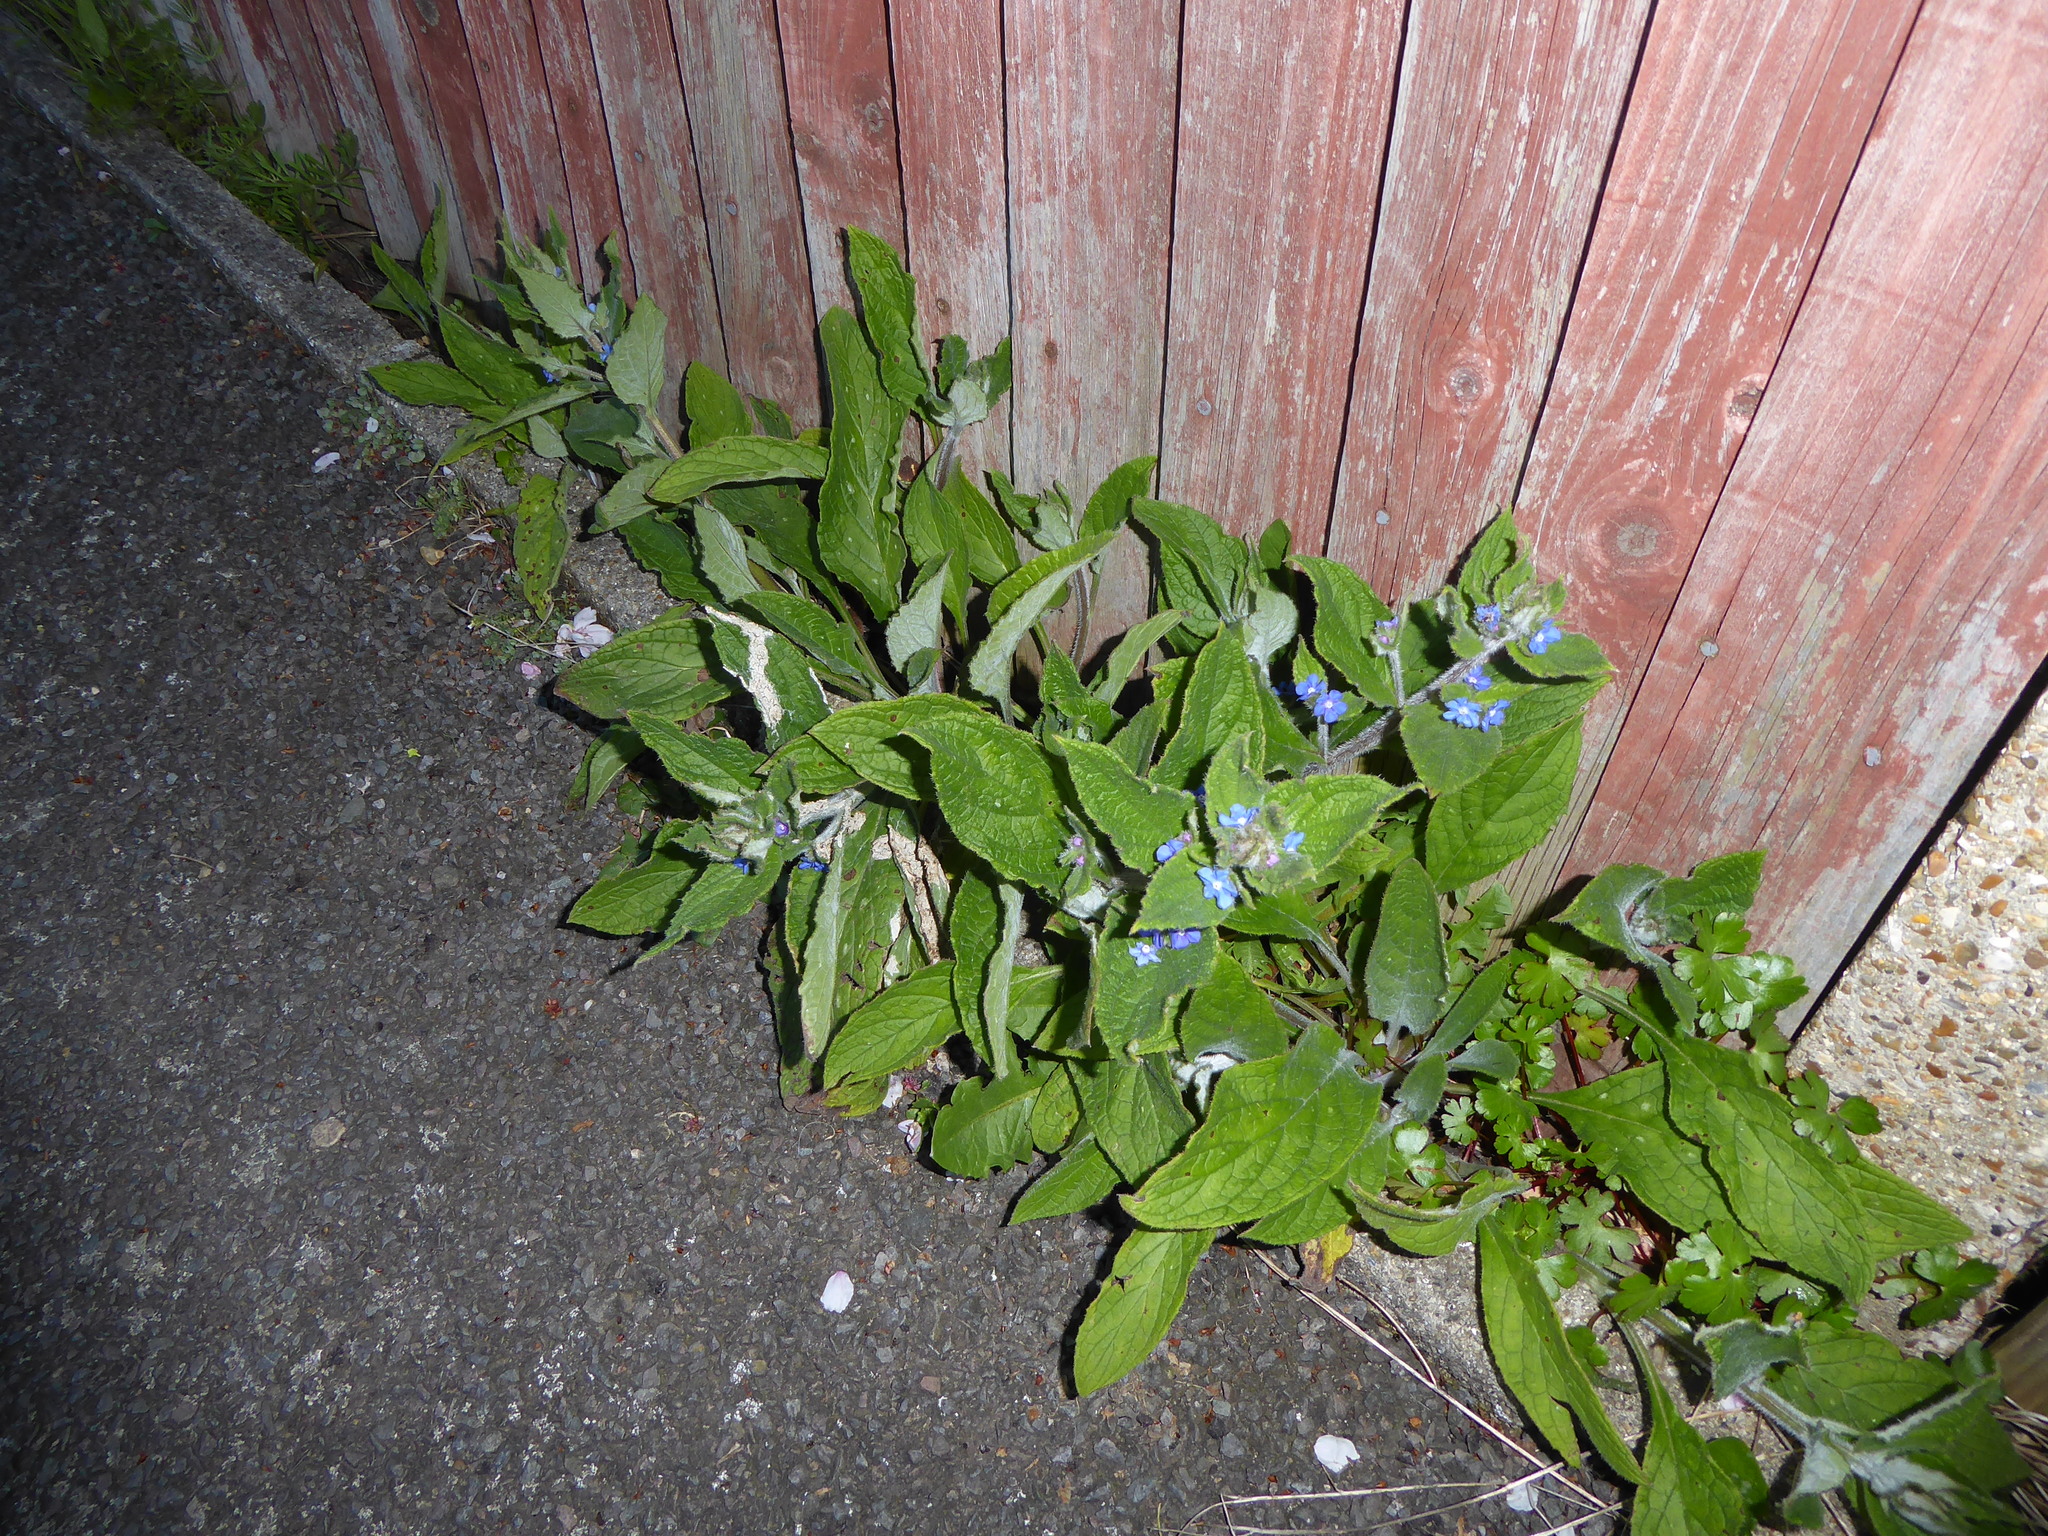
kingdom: Plantae
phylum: Tracheophyta
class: Magnoliopsida
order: Boraginales
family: Boraginaceae
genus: Pentaglottis
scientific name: Pentaglottis sempervirens
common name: Green alkanet
